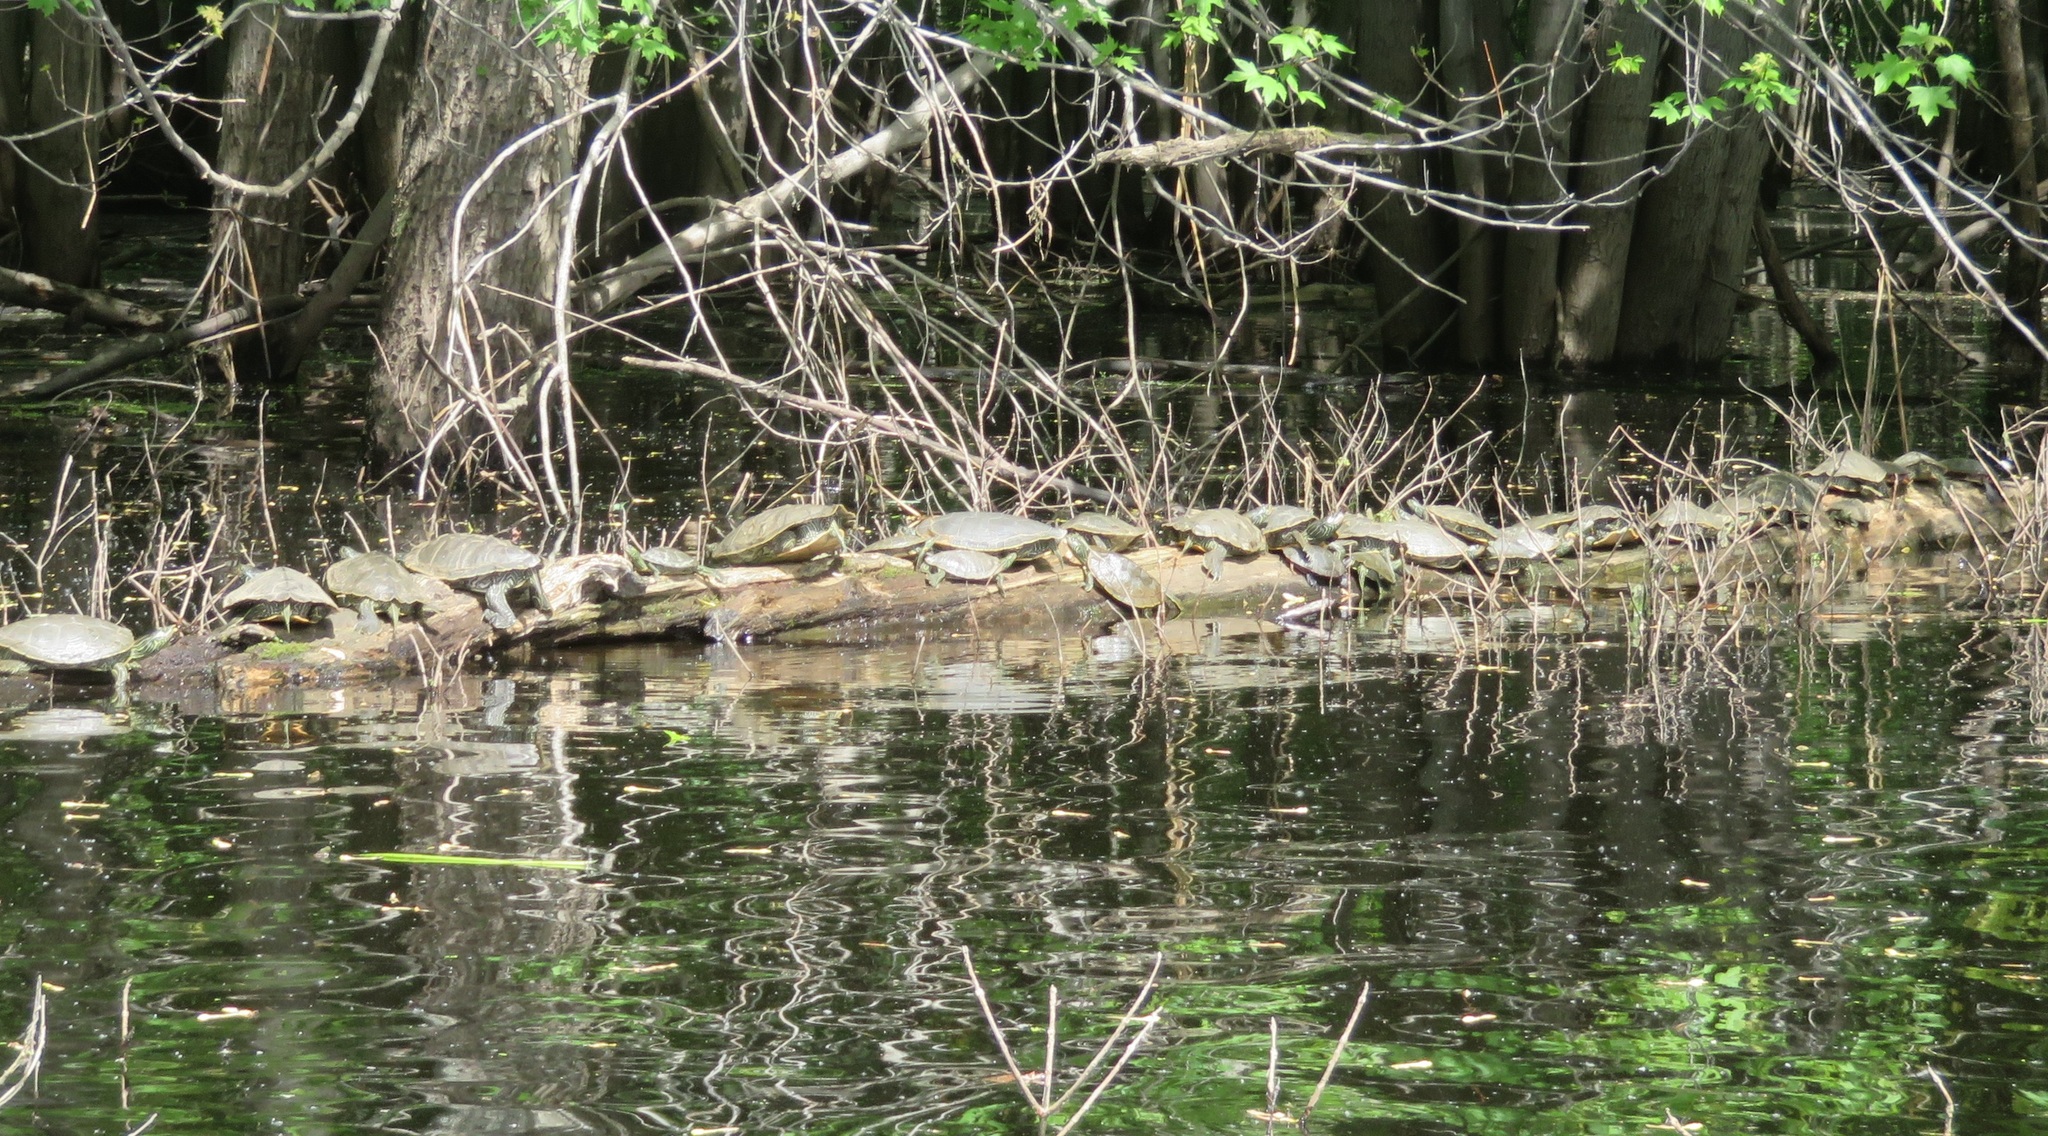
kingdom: Animalia
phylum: Chordata
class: Testudines
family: Emydidae
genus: Graptemys
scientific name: Graptemys geographica
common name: Common map turtle
